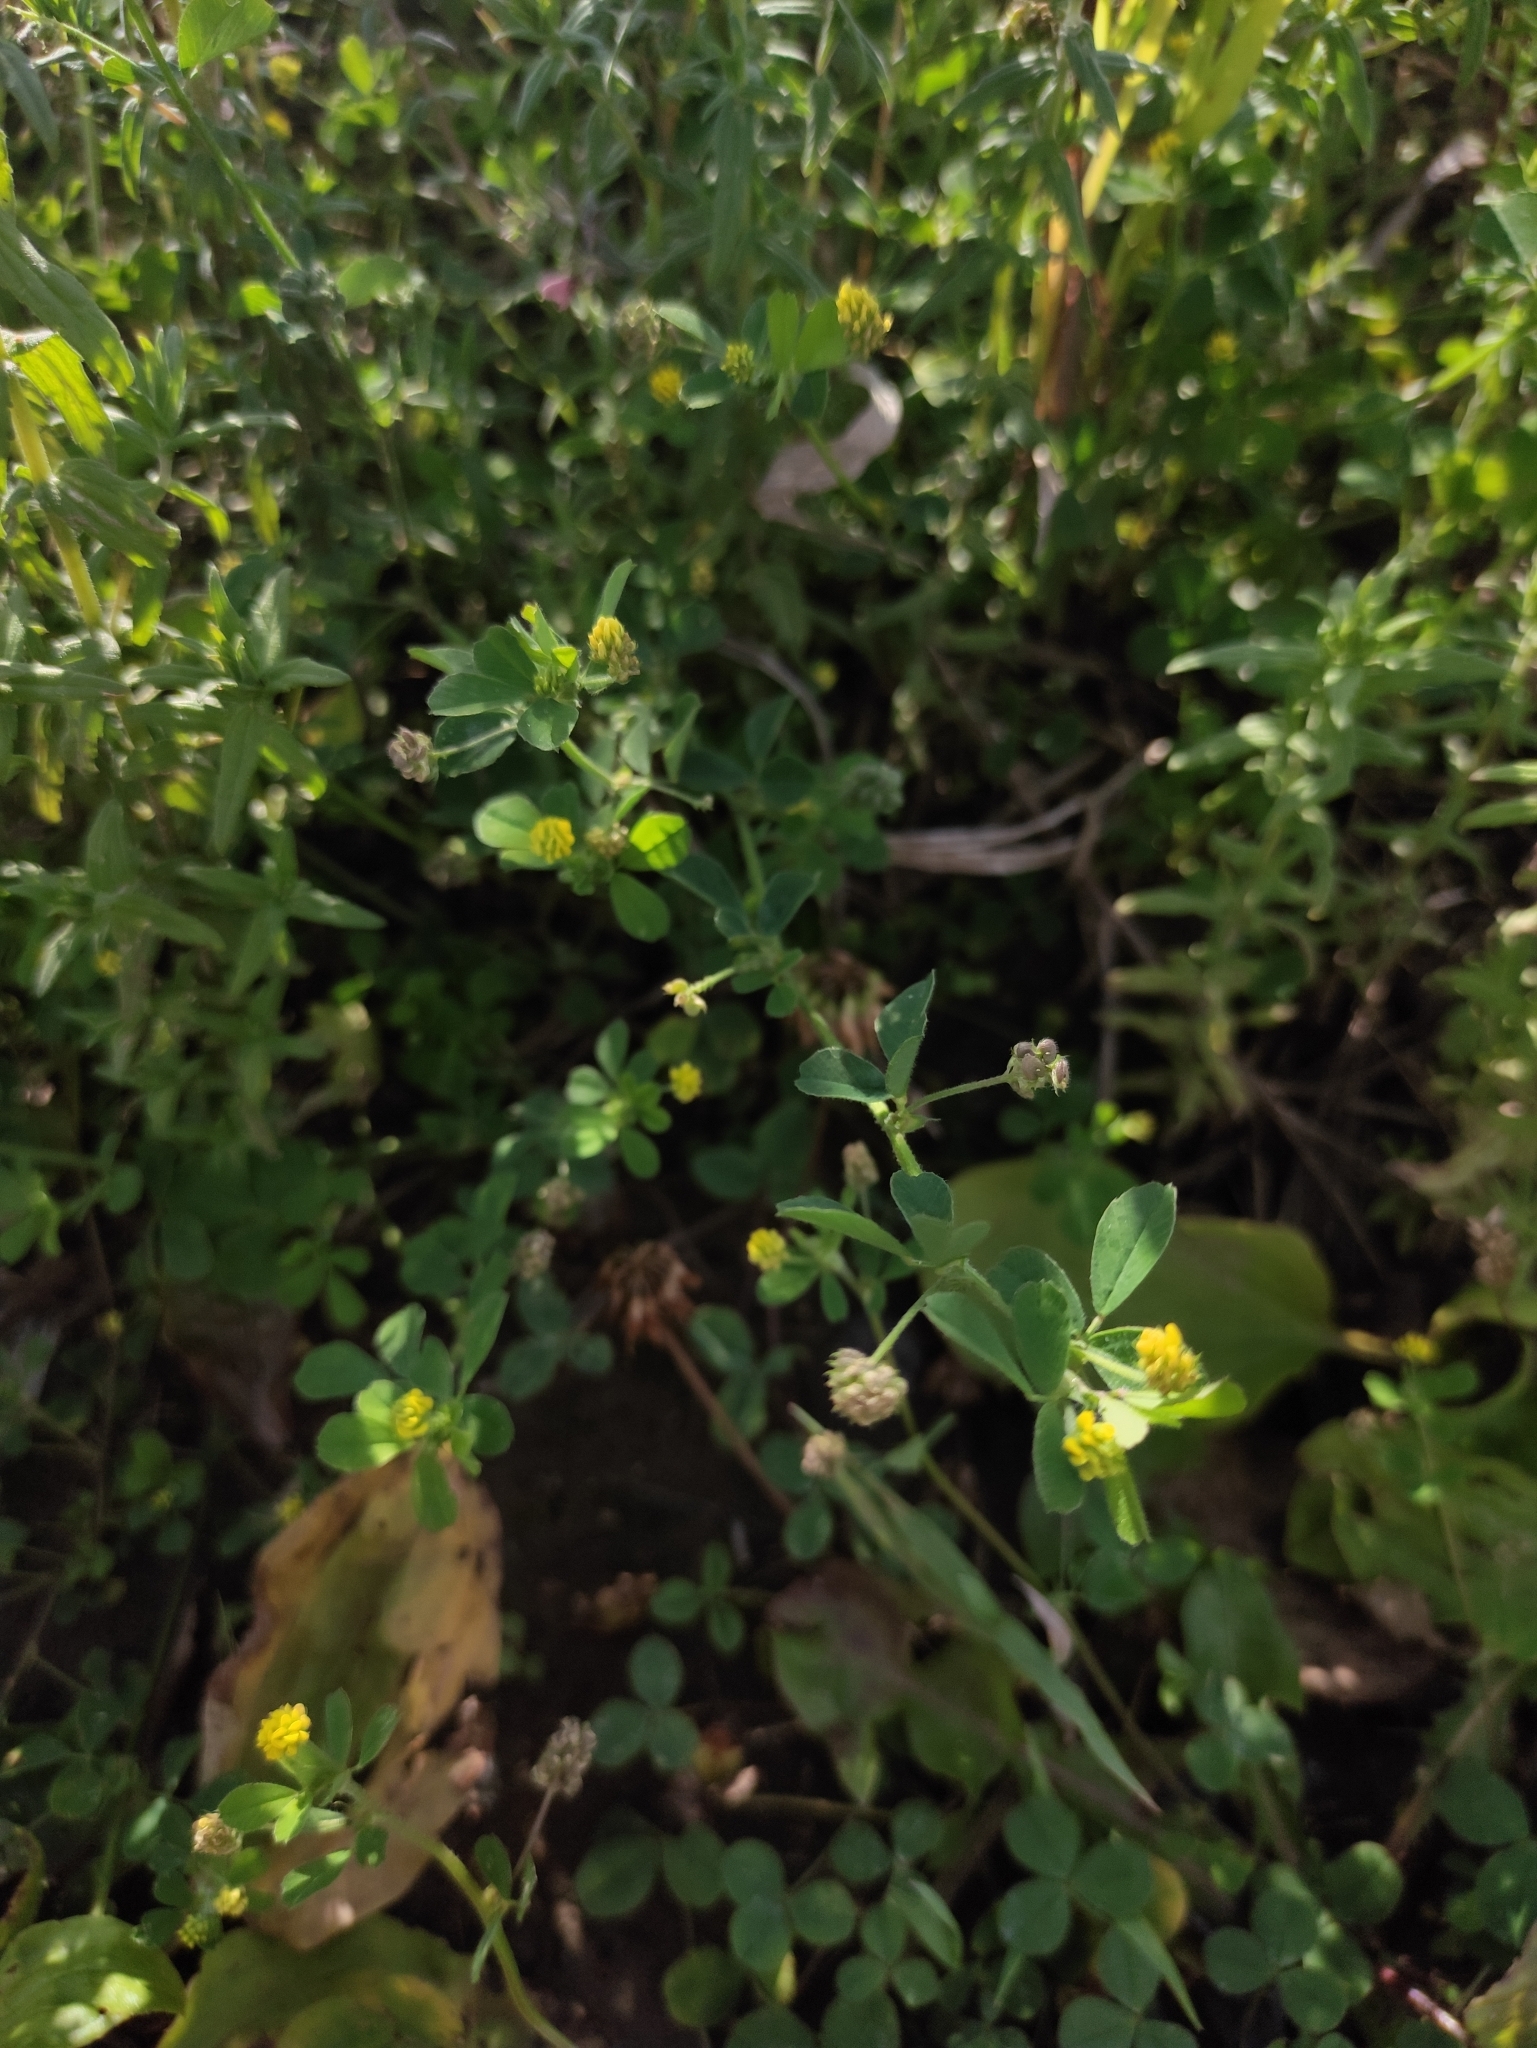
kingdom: Plantae
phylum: Tracheophyta
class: Magnoliopsida
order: Fabales
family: Fabaceae
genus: Medicago
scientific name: Medicago lupulina
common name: Black medick
